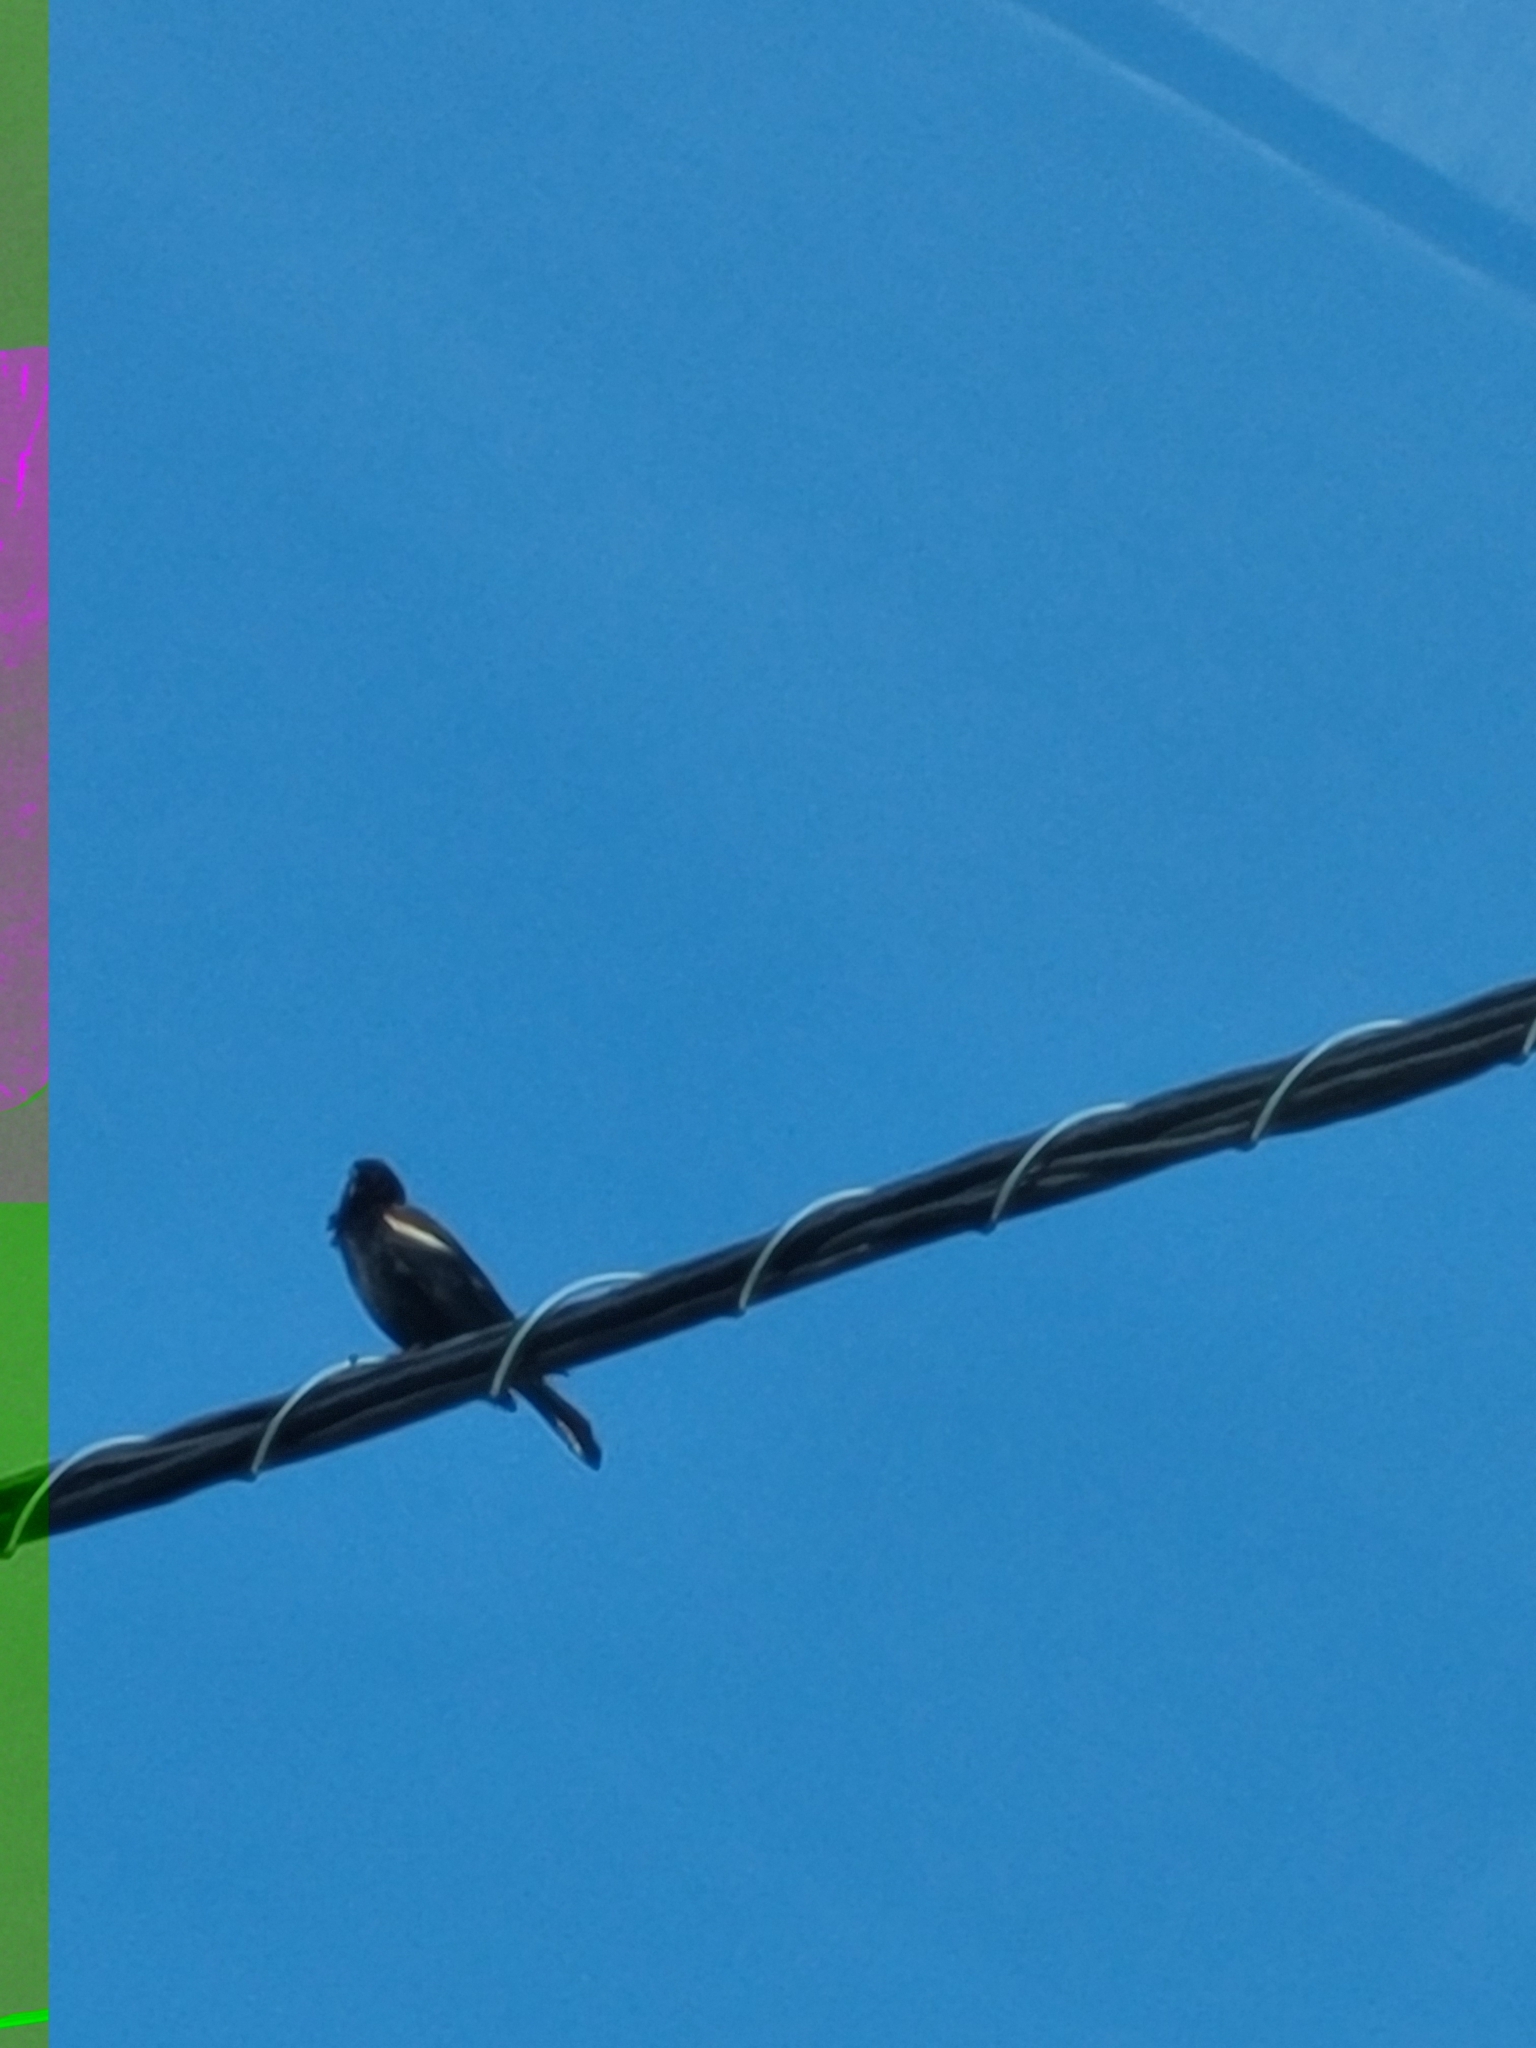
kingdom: Animalia
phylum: Chordata
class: Aves
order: Passeriformes
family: Icteridae
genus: Agelaius
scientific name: Agelaius phoeniceus
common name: Red-winged blackbird
